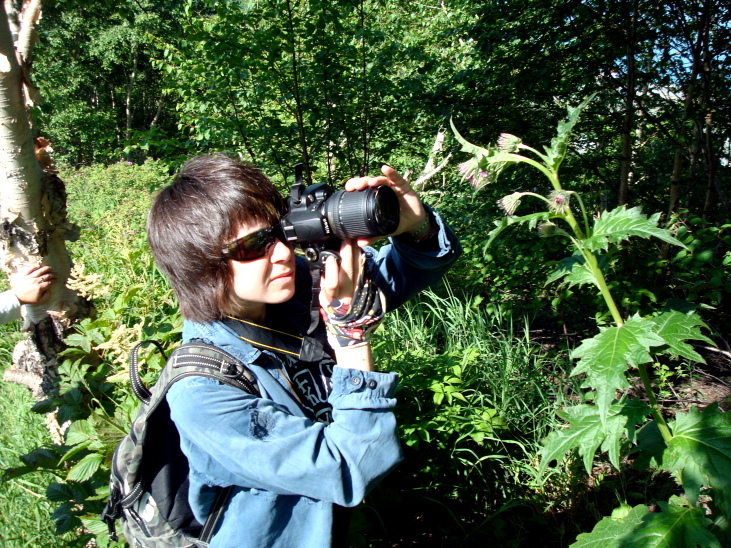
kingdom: Plantae
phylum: Tracheophyta
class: Magnoliopsida
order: Asterales
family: Asteraceae
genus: Cirsium
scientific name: Cirsium kamtschaticum
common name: Kamchatka thistle
